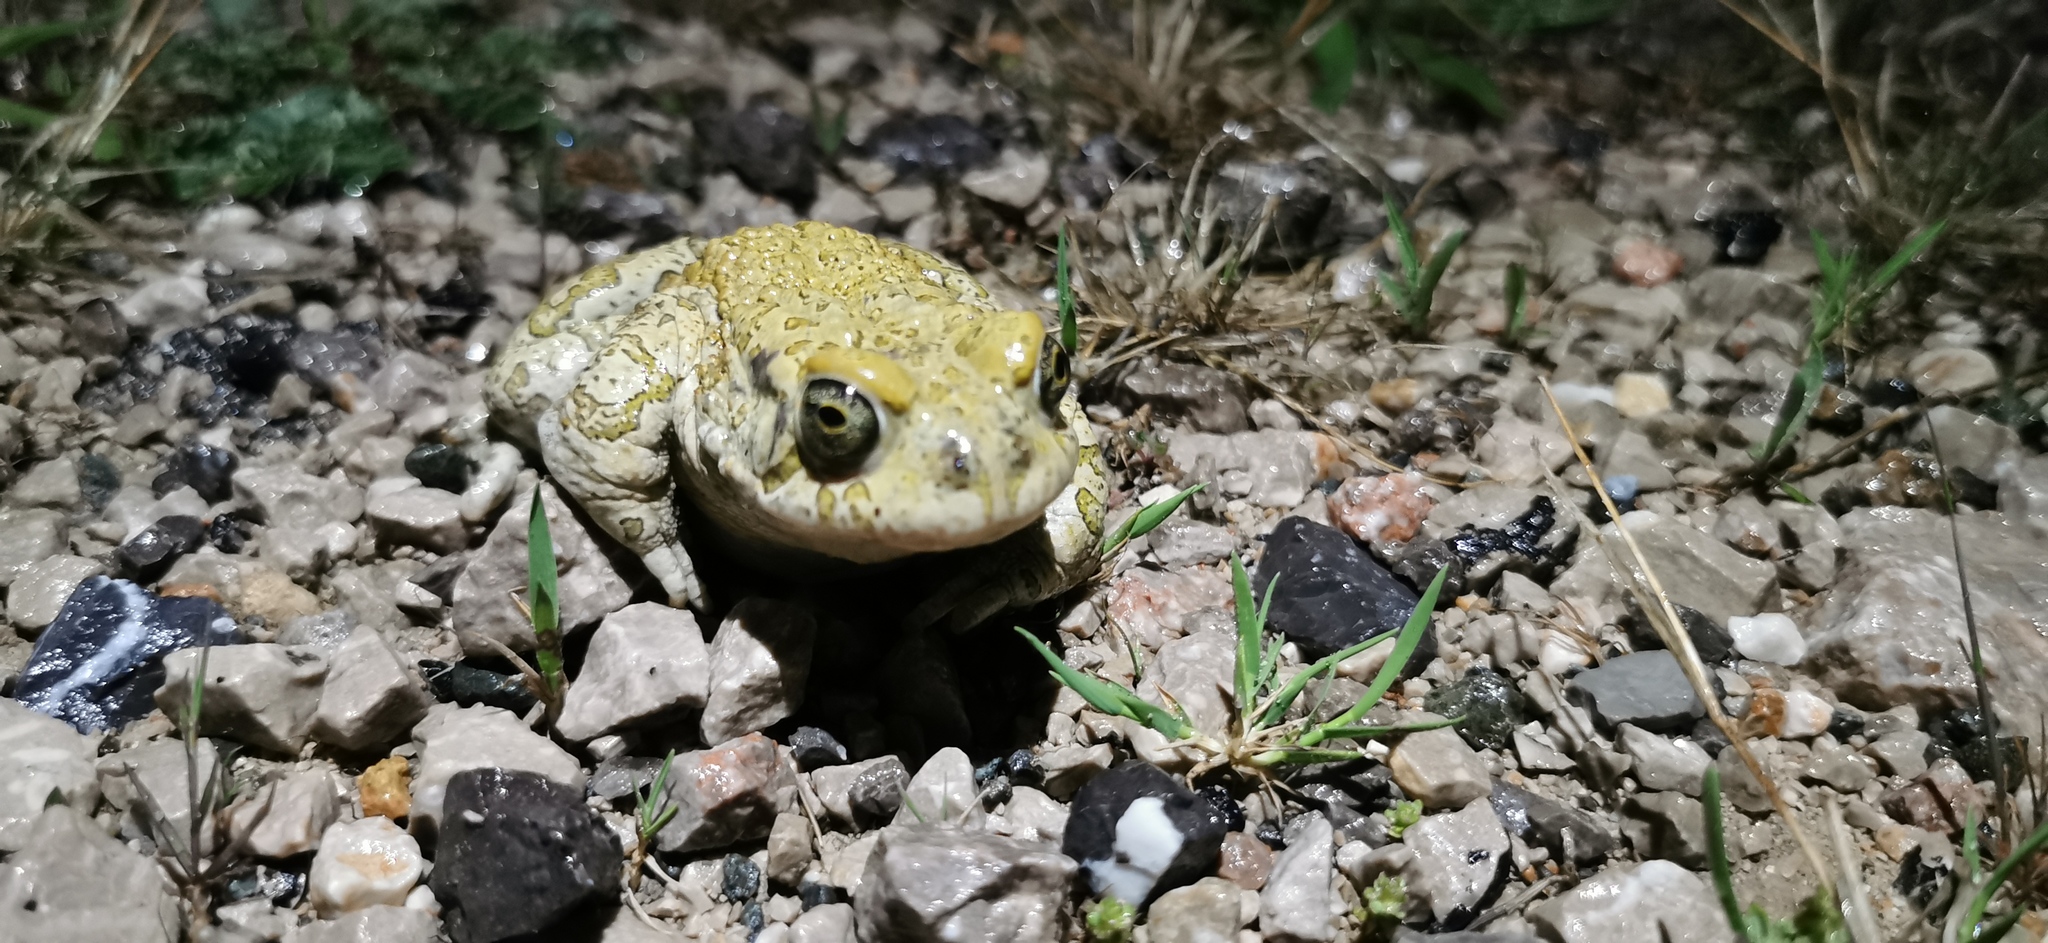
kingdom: Animalia
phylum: Chordata
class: Amphibia
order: Anura
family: Bufonidae
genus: Bufotes
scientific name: Bufotes viridis
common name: European green toad
